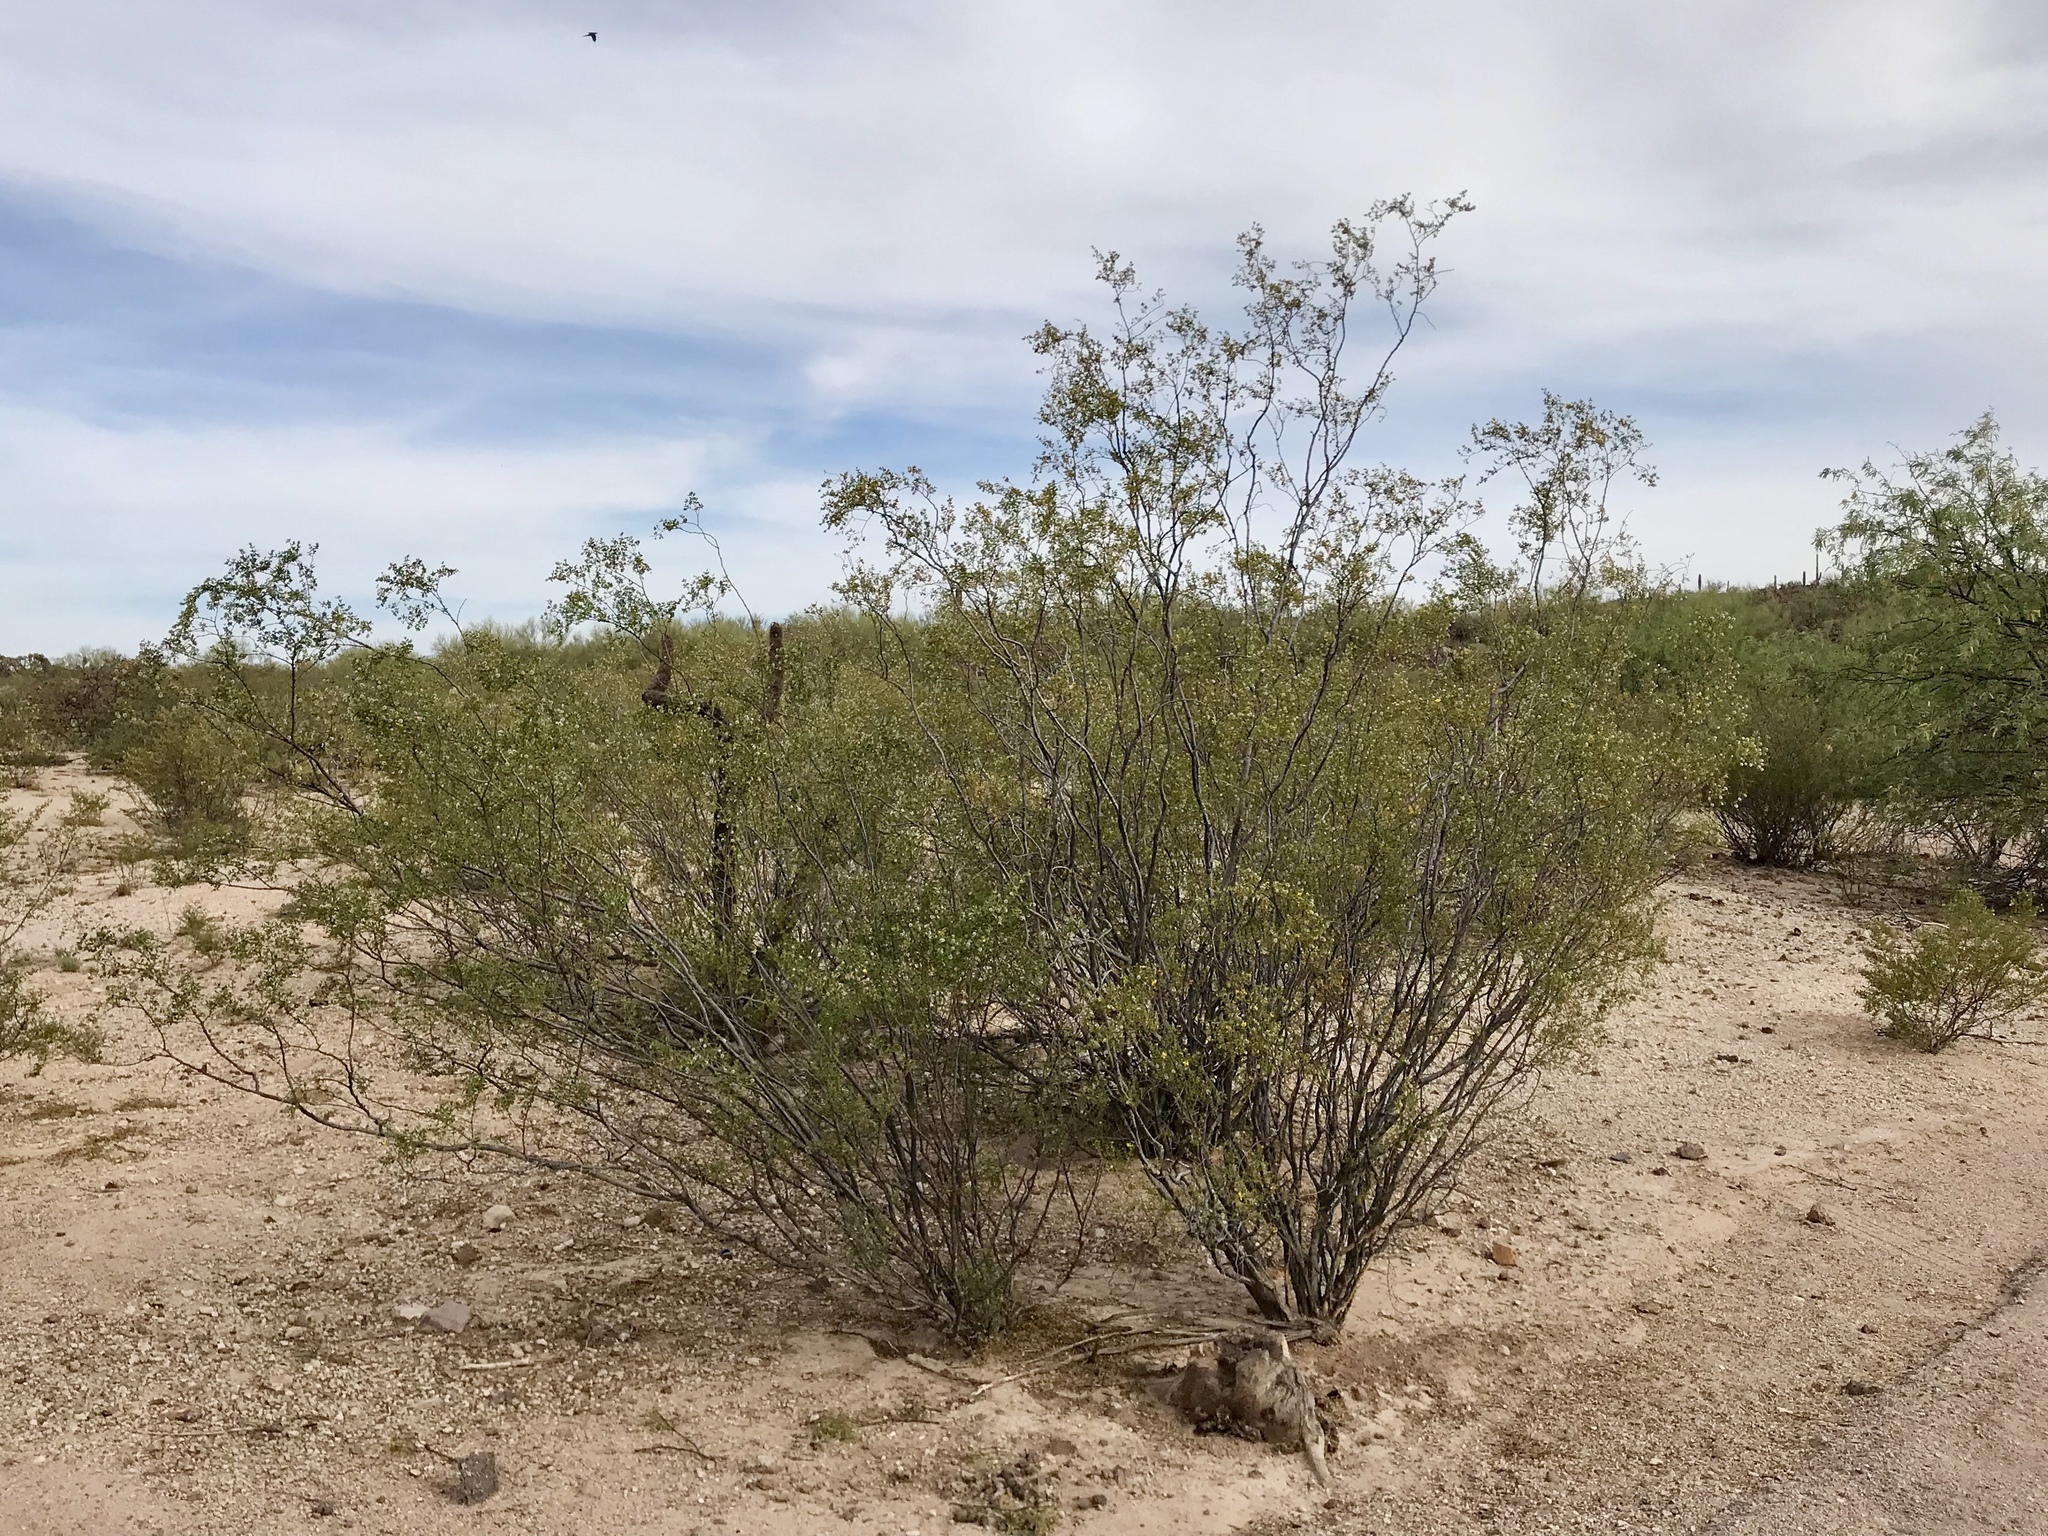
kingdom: Plantae
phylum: Tracheophyta
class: Magnoliopsida
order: Zygophyllales
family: Zygophyllaceae
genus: Larrea
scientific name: Larrea tridentata
